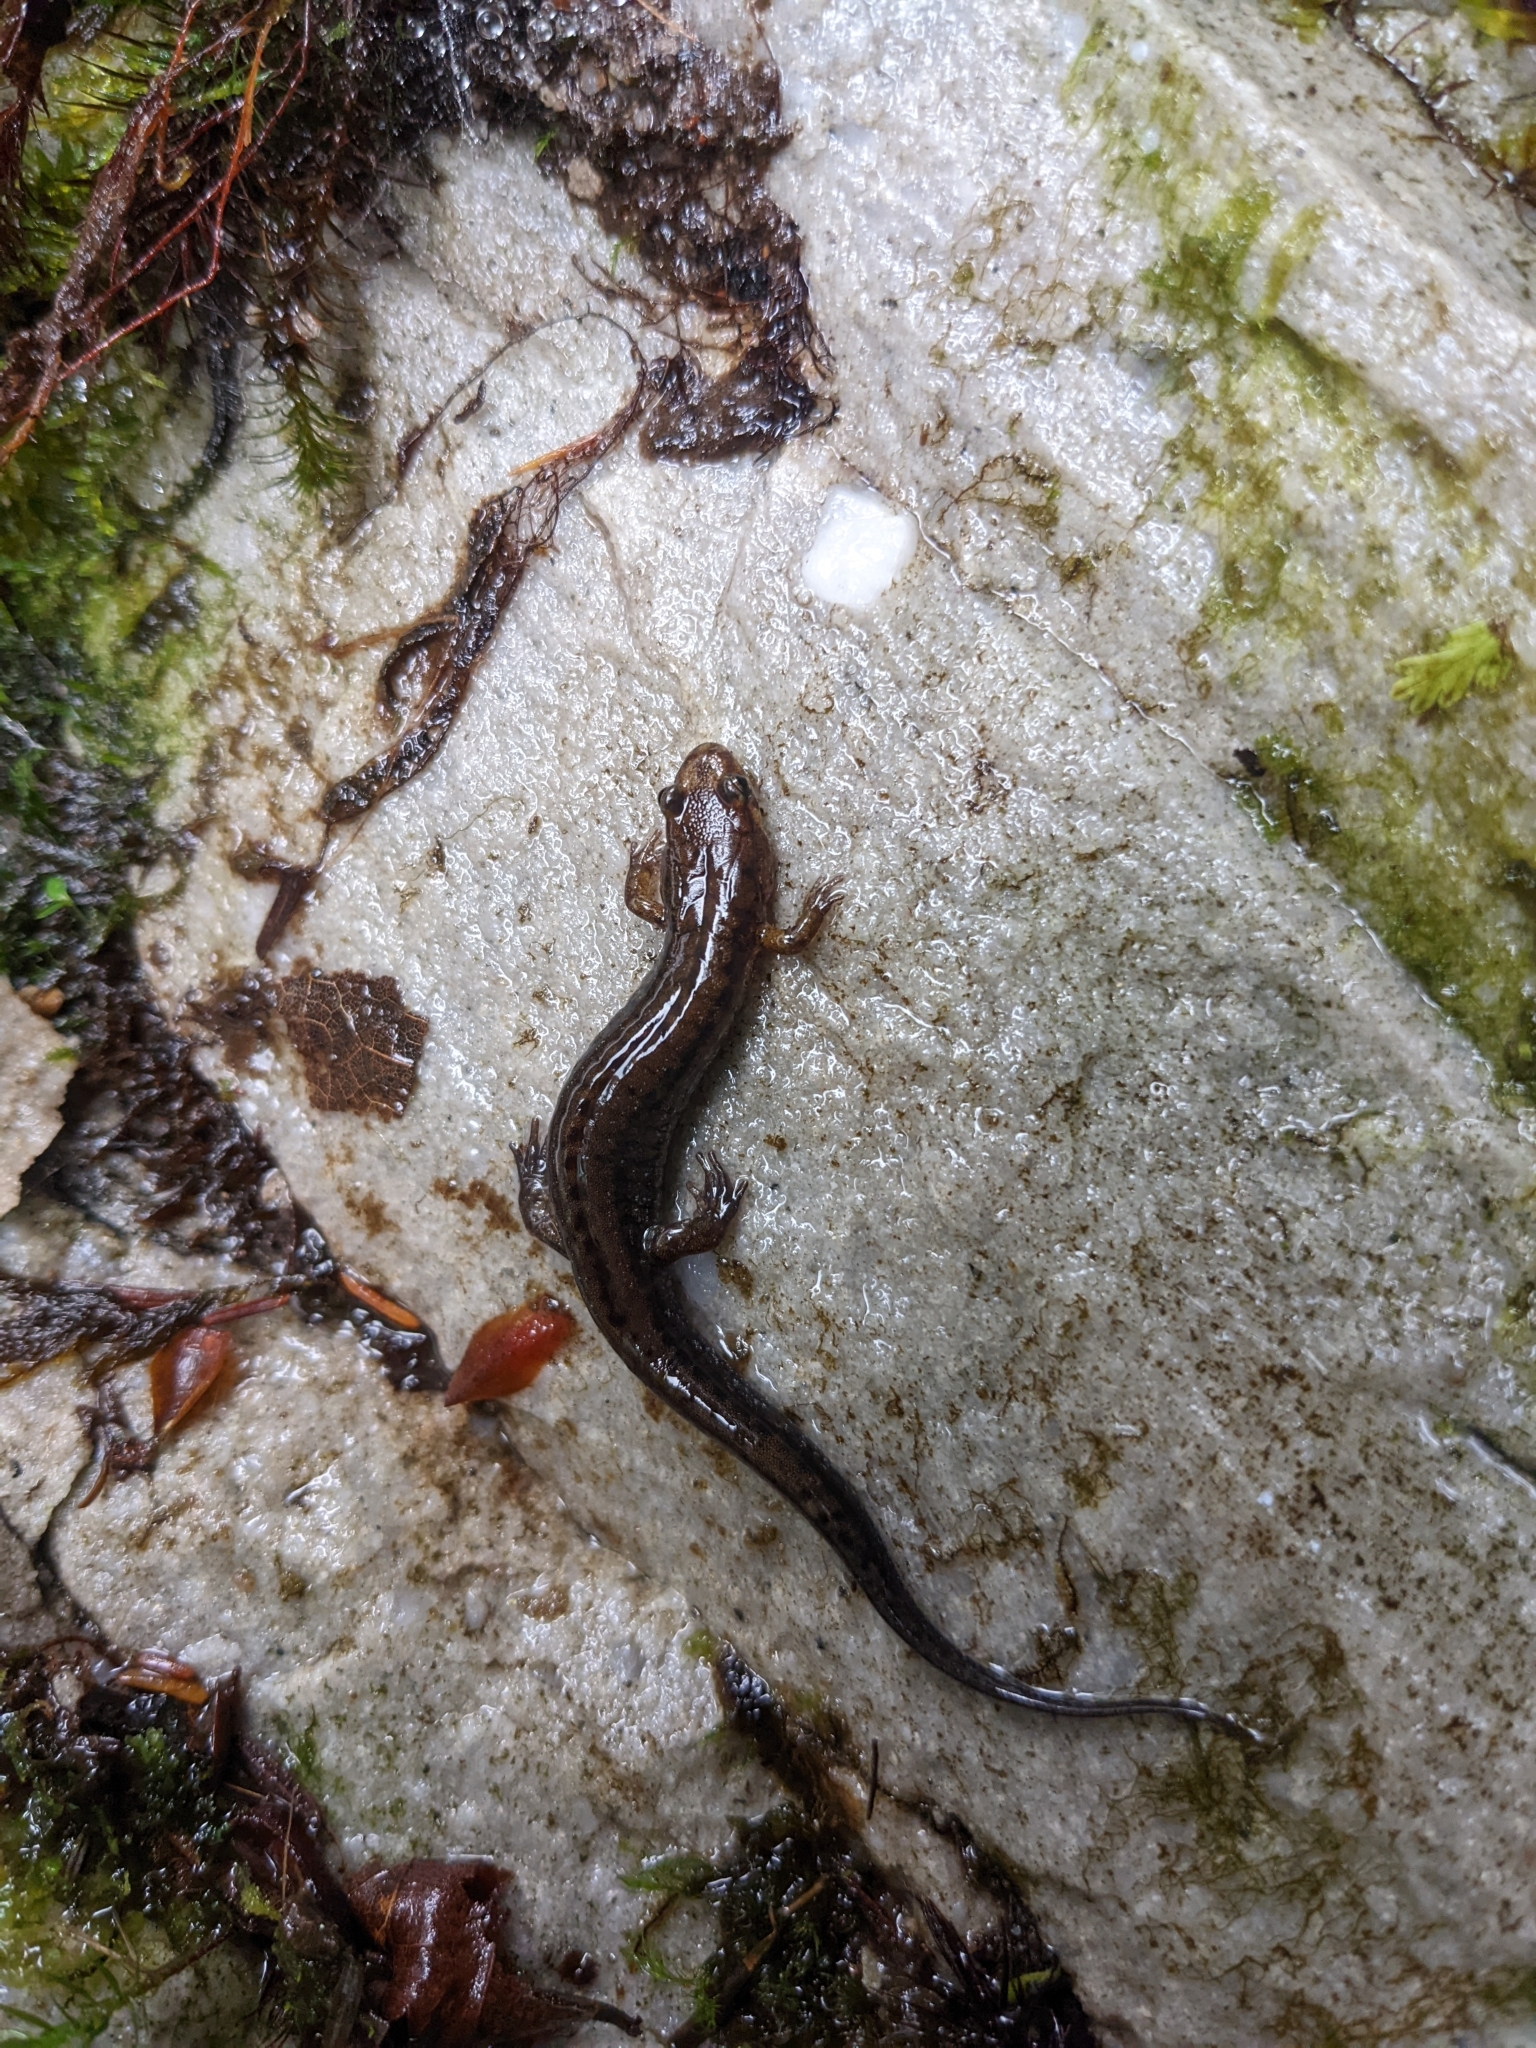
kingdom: Animalia
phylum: Chordata
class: Amphibia
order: Caudata
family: Plethodontidae
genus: Desmognathus
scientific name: Desmognathus ochrophaeus
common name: Allegheny mountain dusky salamander
